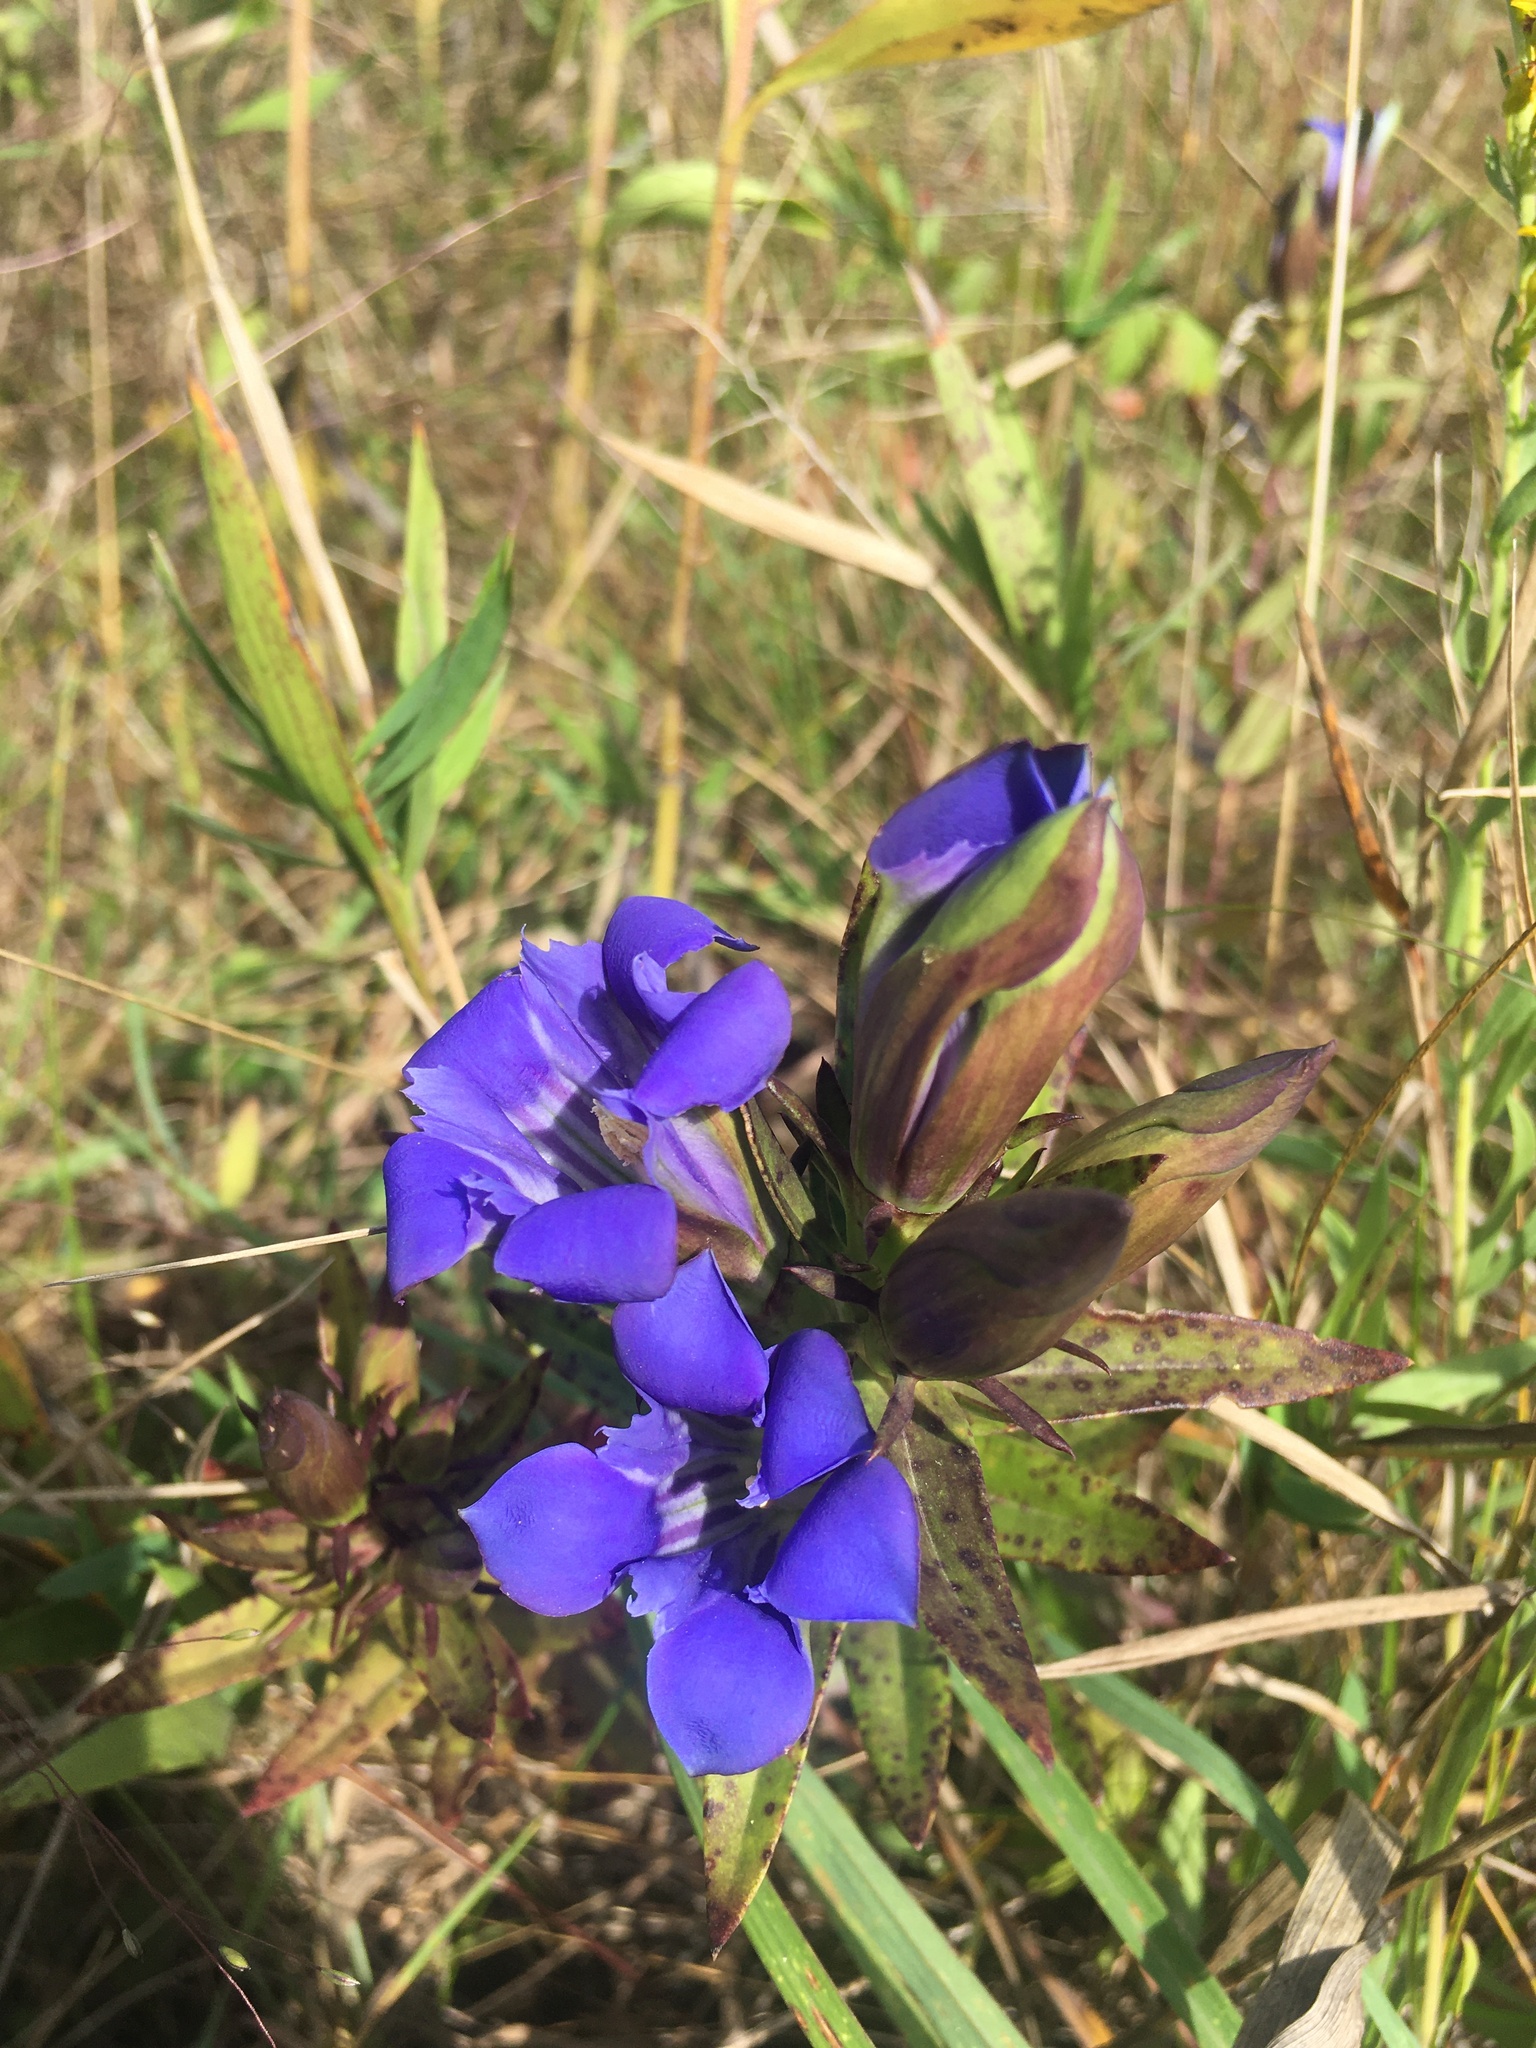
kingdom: Plantae
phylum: Tracheophyta
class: Magnoliopsida
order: Gentianales
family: Gentianaceae
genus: Gentiana
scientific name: Gentiana puberulenta
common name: Downy gentian
